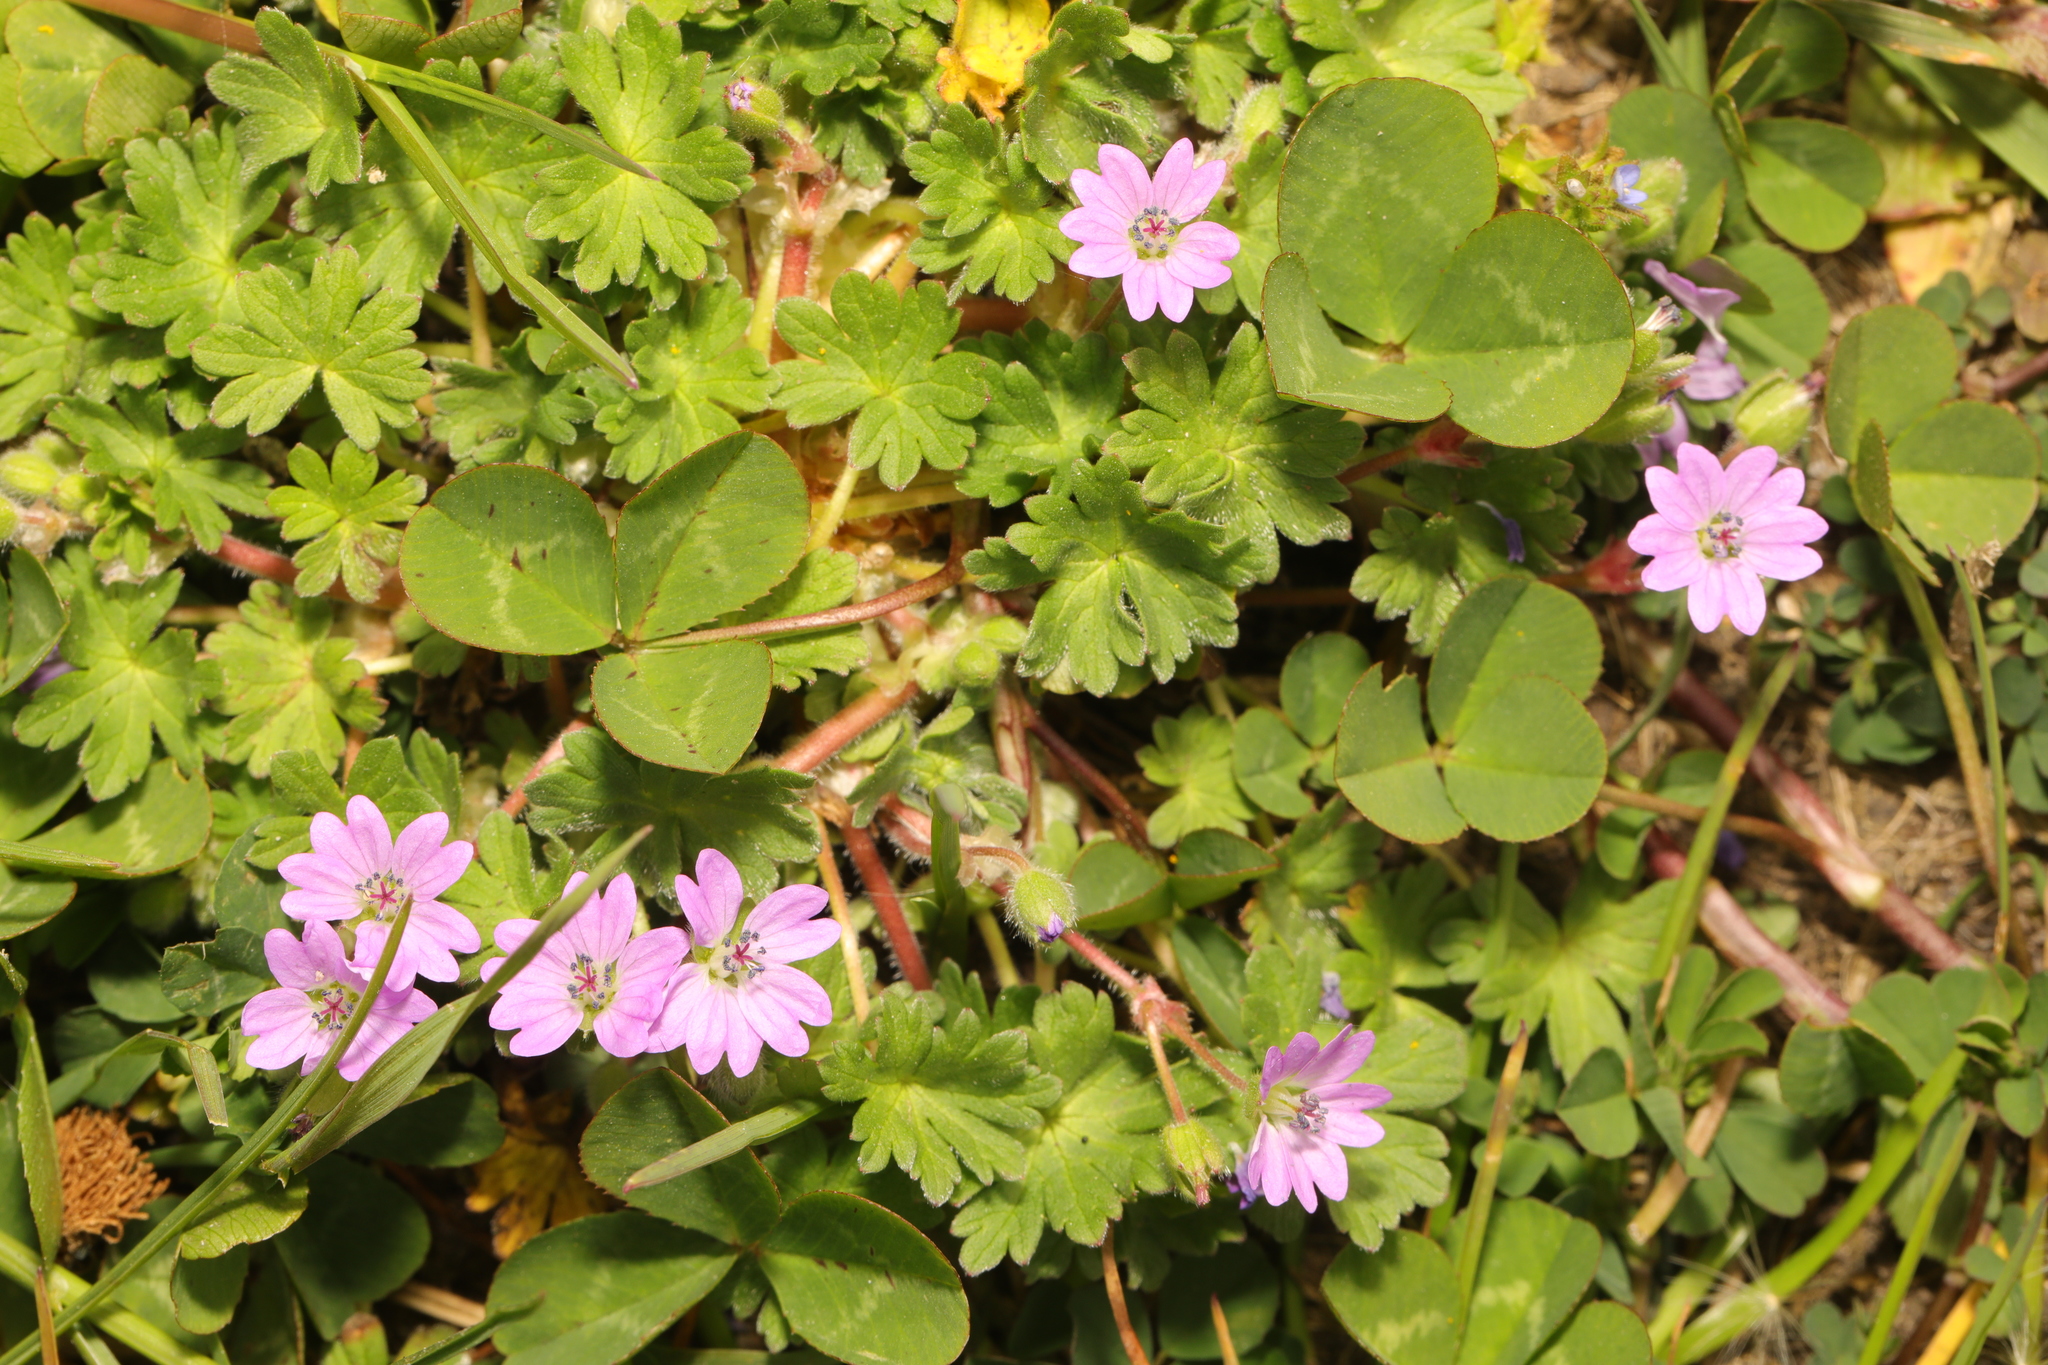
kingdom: Plantae
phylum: Tracheophyta
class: Magnoliopsida
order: Geraniales
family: Geraniaceae
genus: Geranium
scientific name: Geranium molle
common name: Dove's-foot crane's-bill
